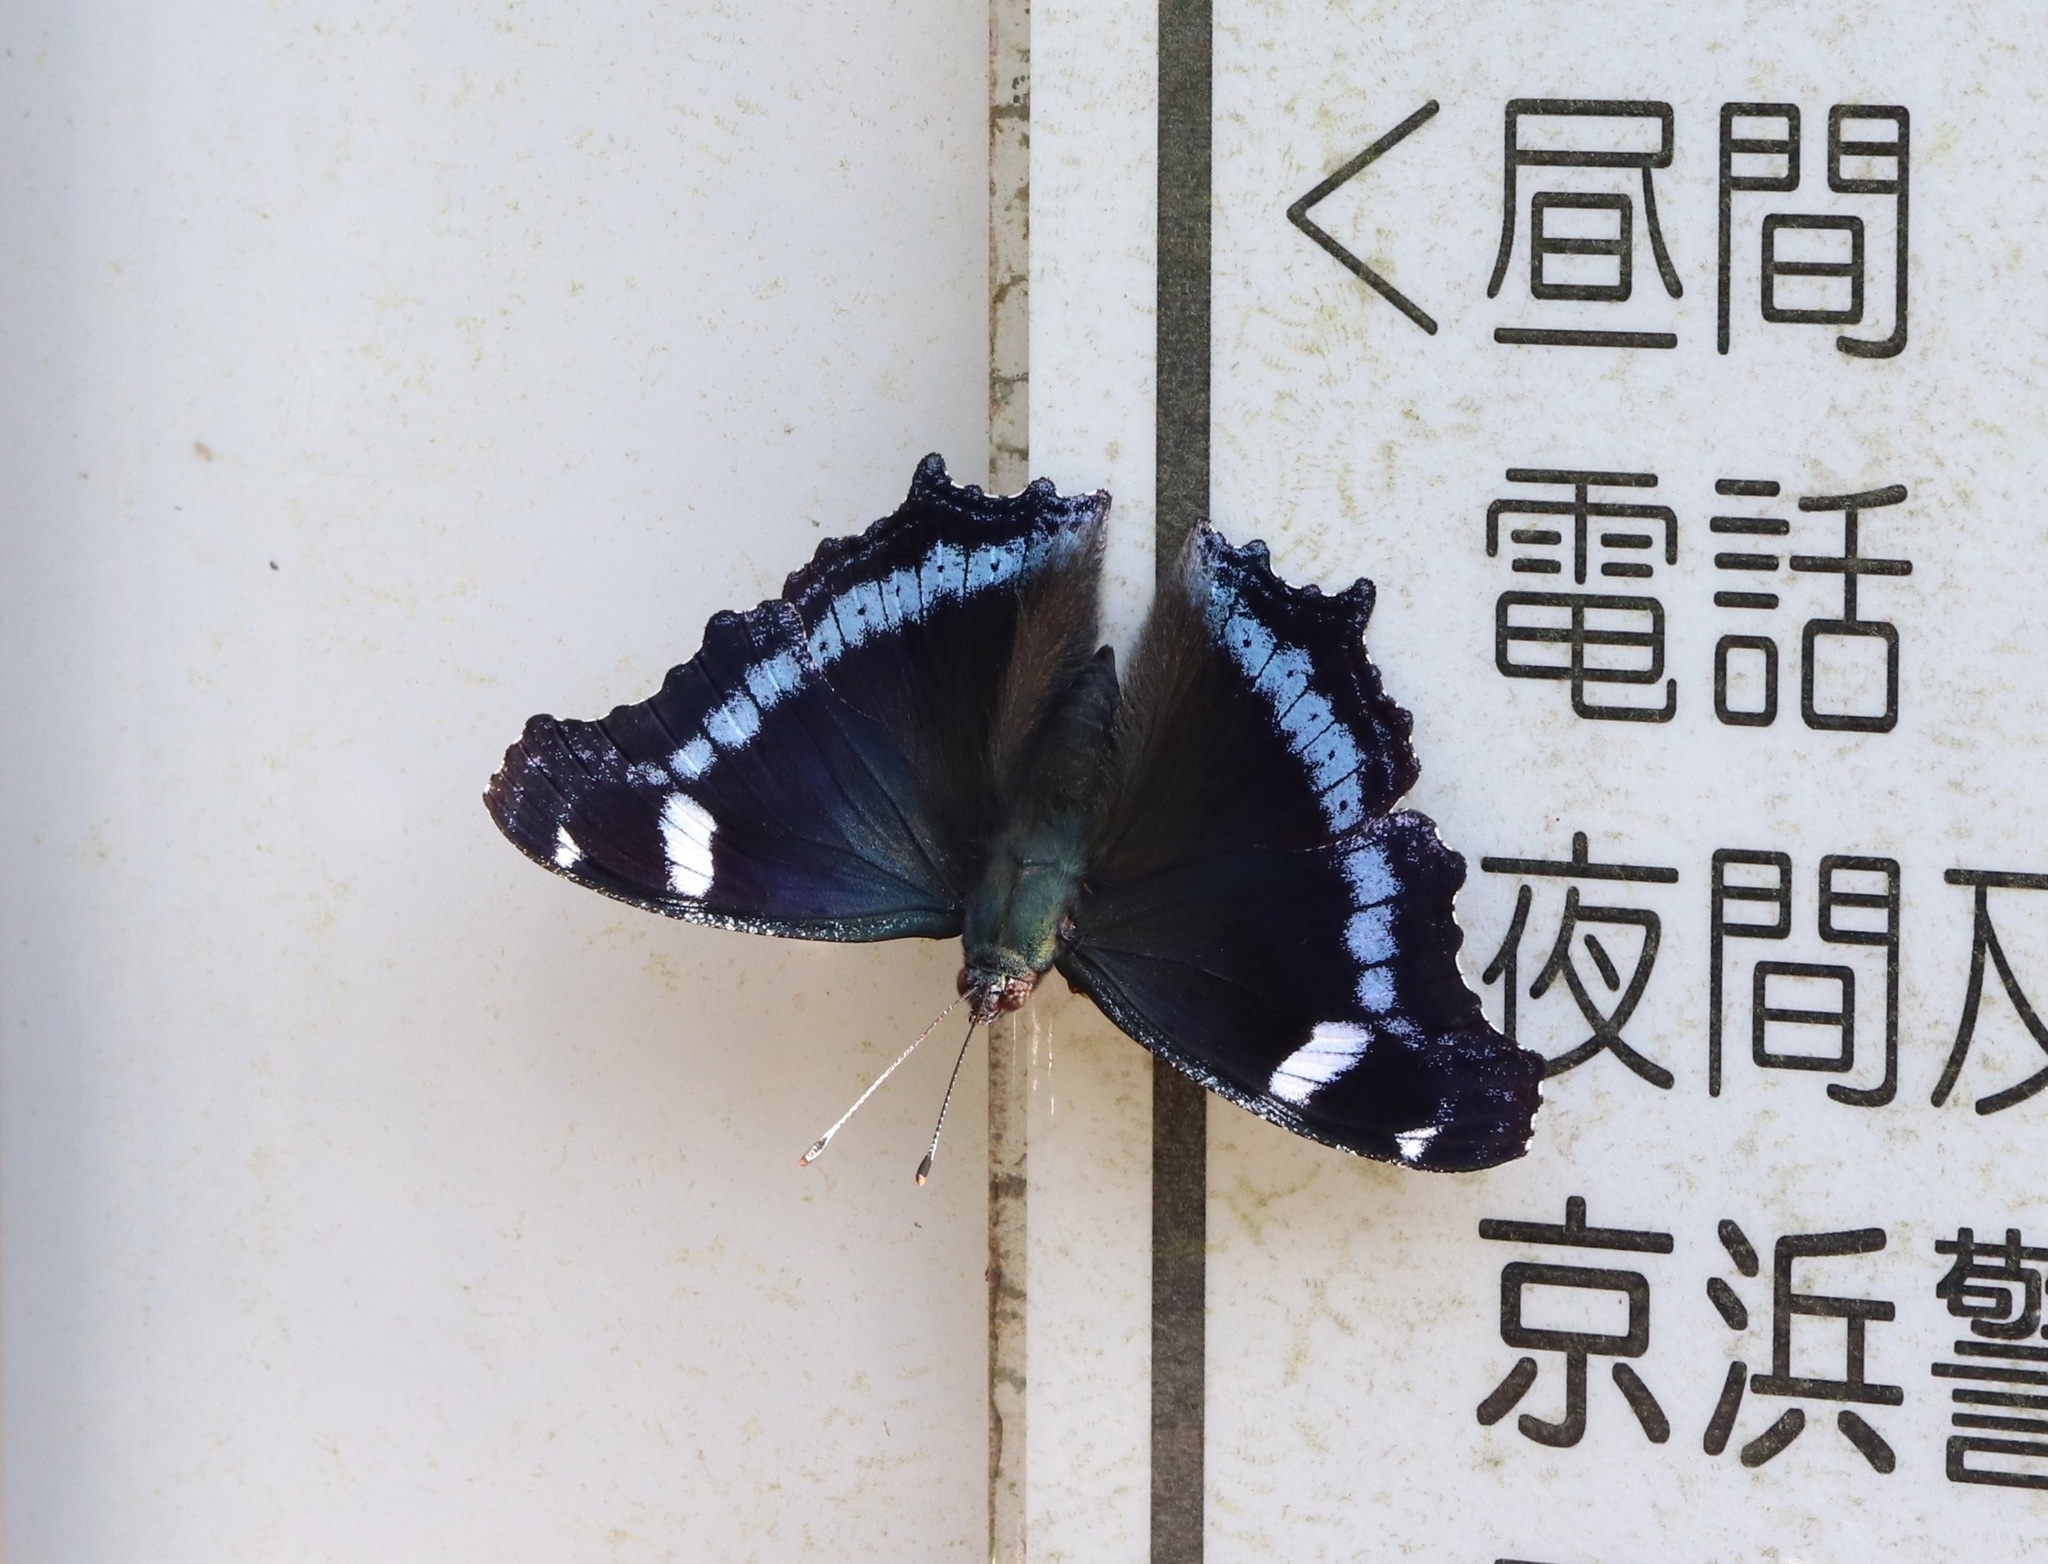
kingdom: Animalia
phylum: Arthropoda
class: Insecta
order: Lepidoptera
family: Nymphalidae
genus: Vanessa
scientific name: Vanessa Kaniska canace
